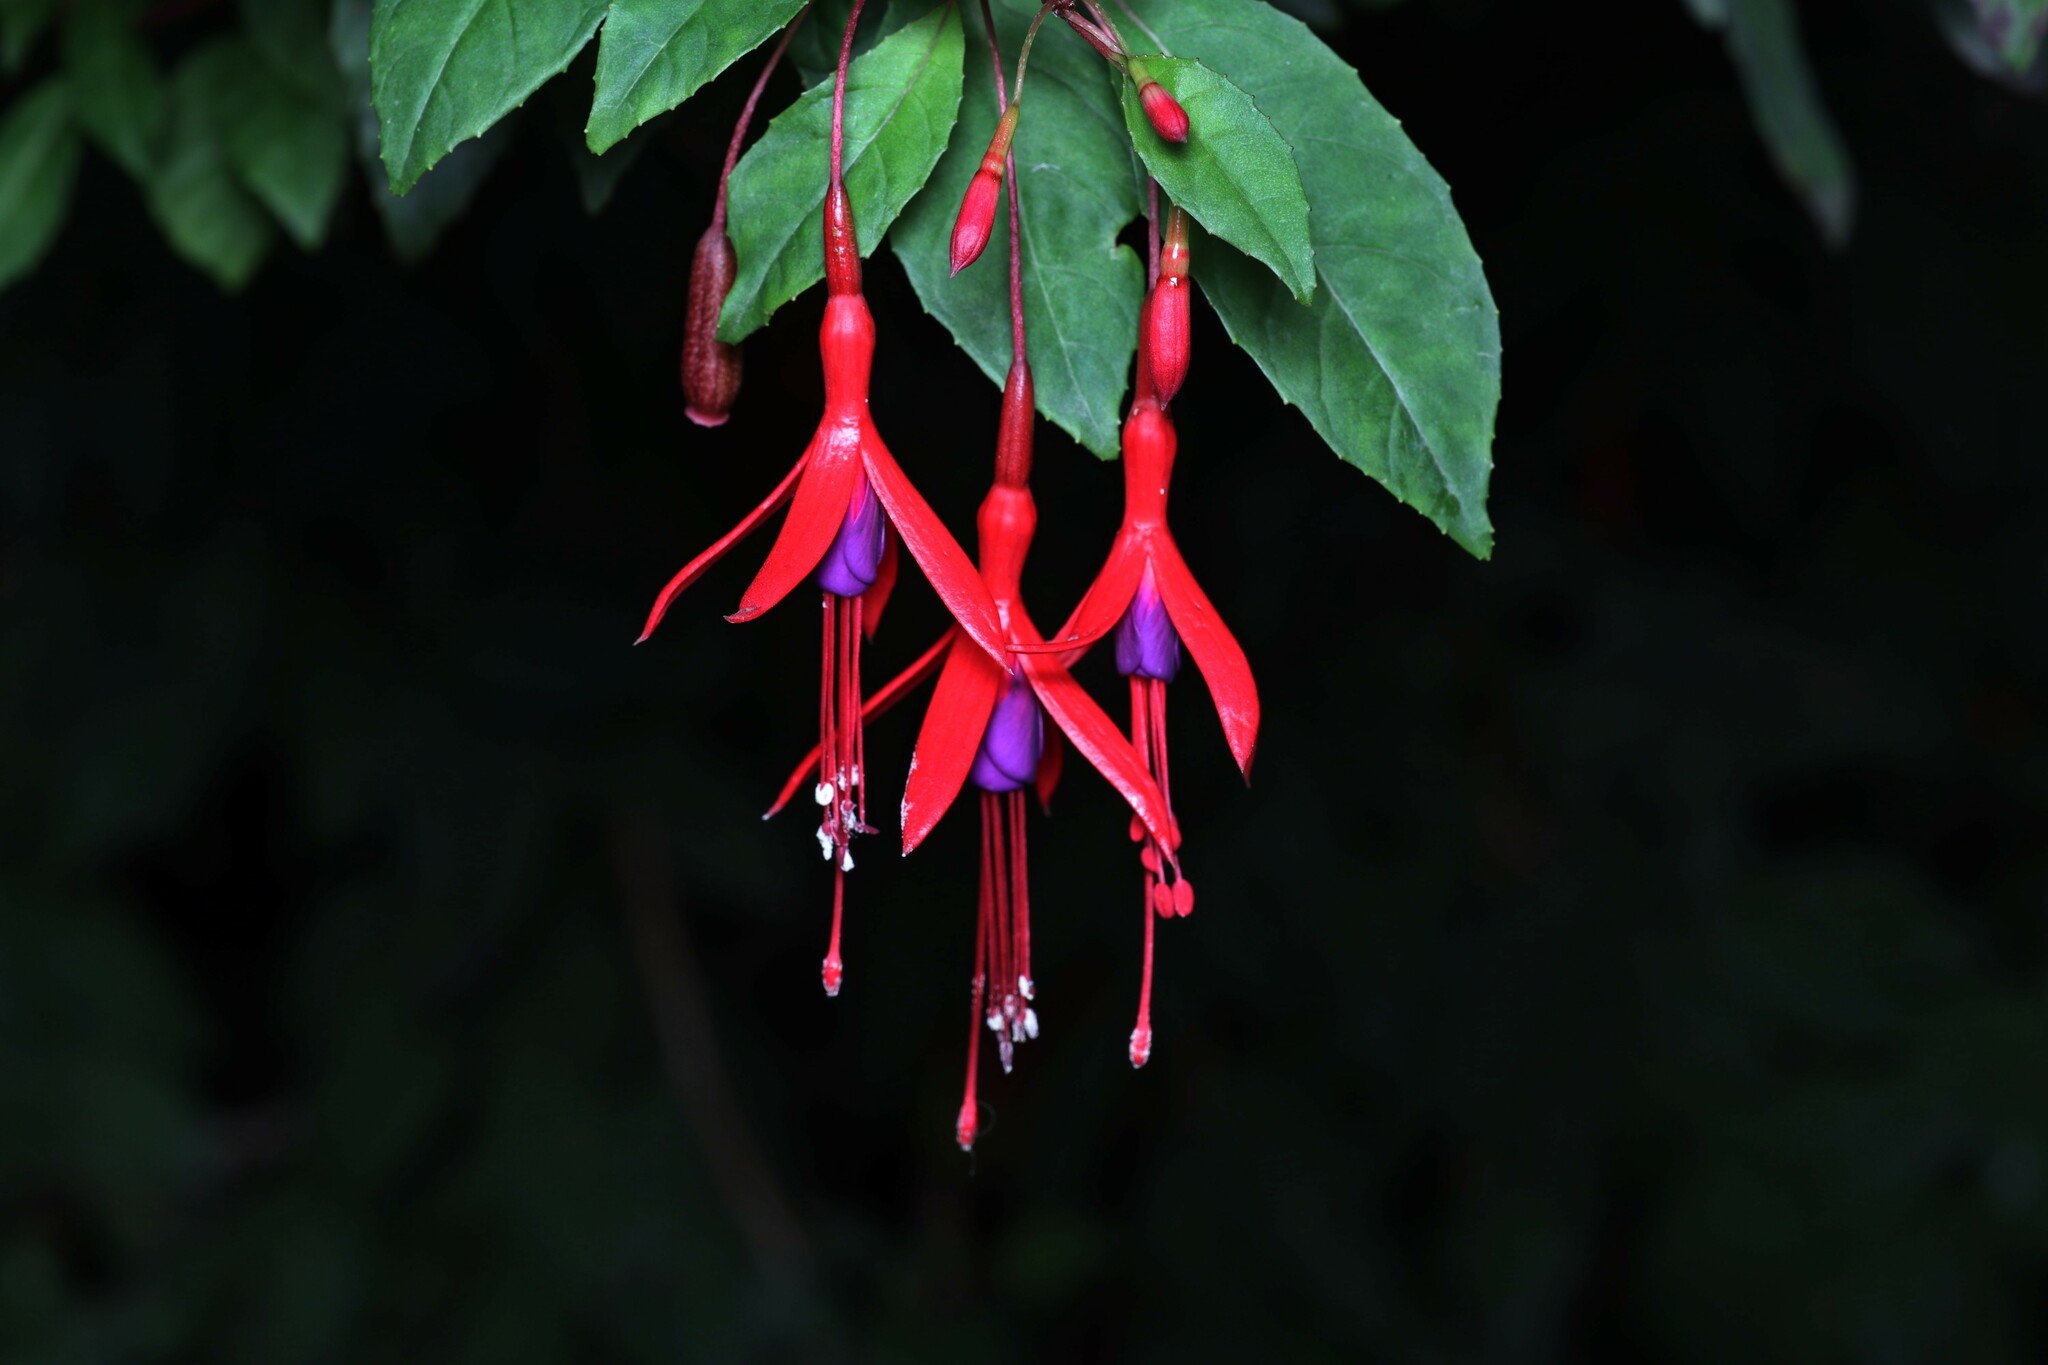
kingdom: Plantae
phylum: Tracheophyta
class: Magnoliopsida
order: Myrtales
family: Onagraceae
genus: Fuchsia
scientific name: Fuchsia magellanica
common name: Hardy fuchsia
